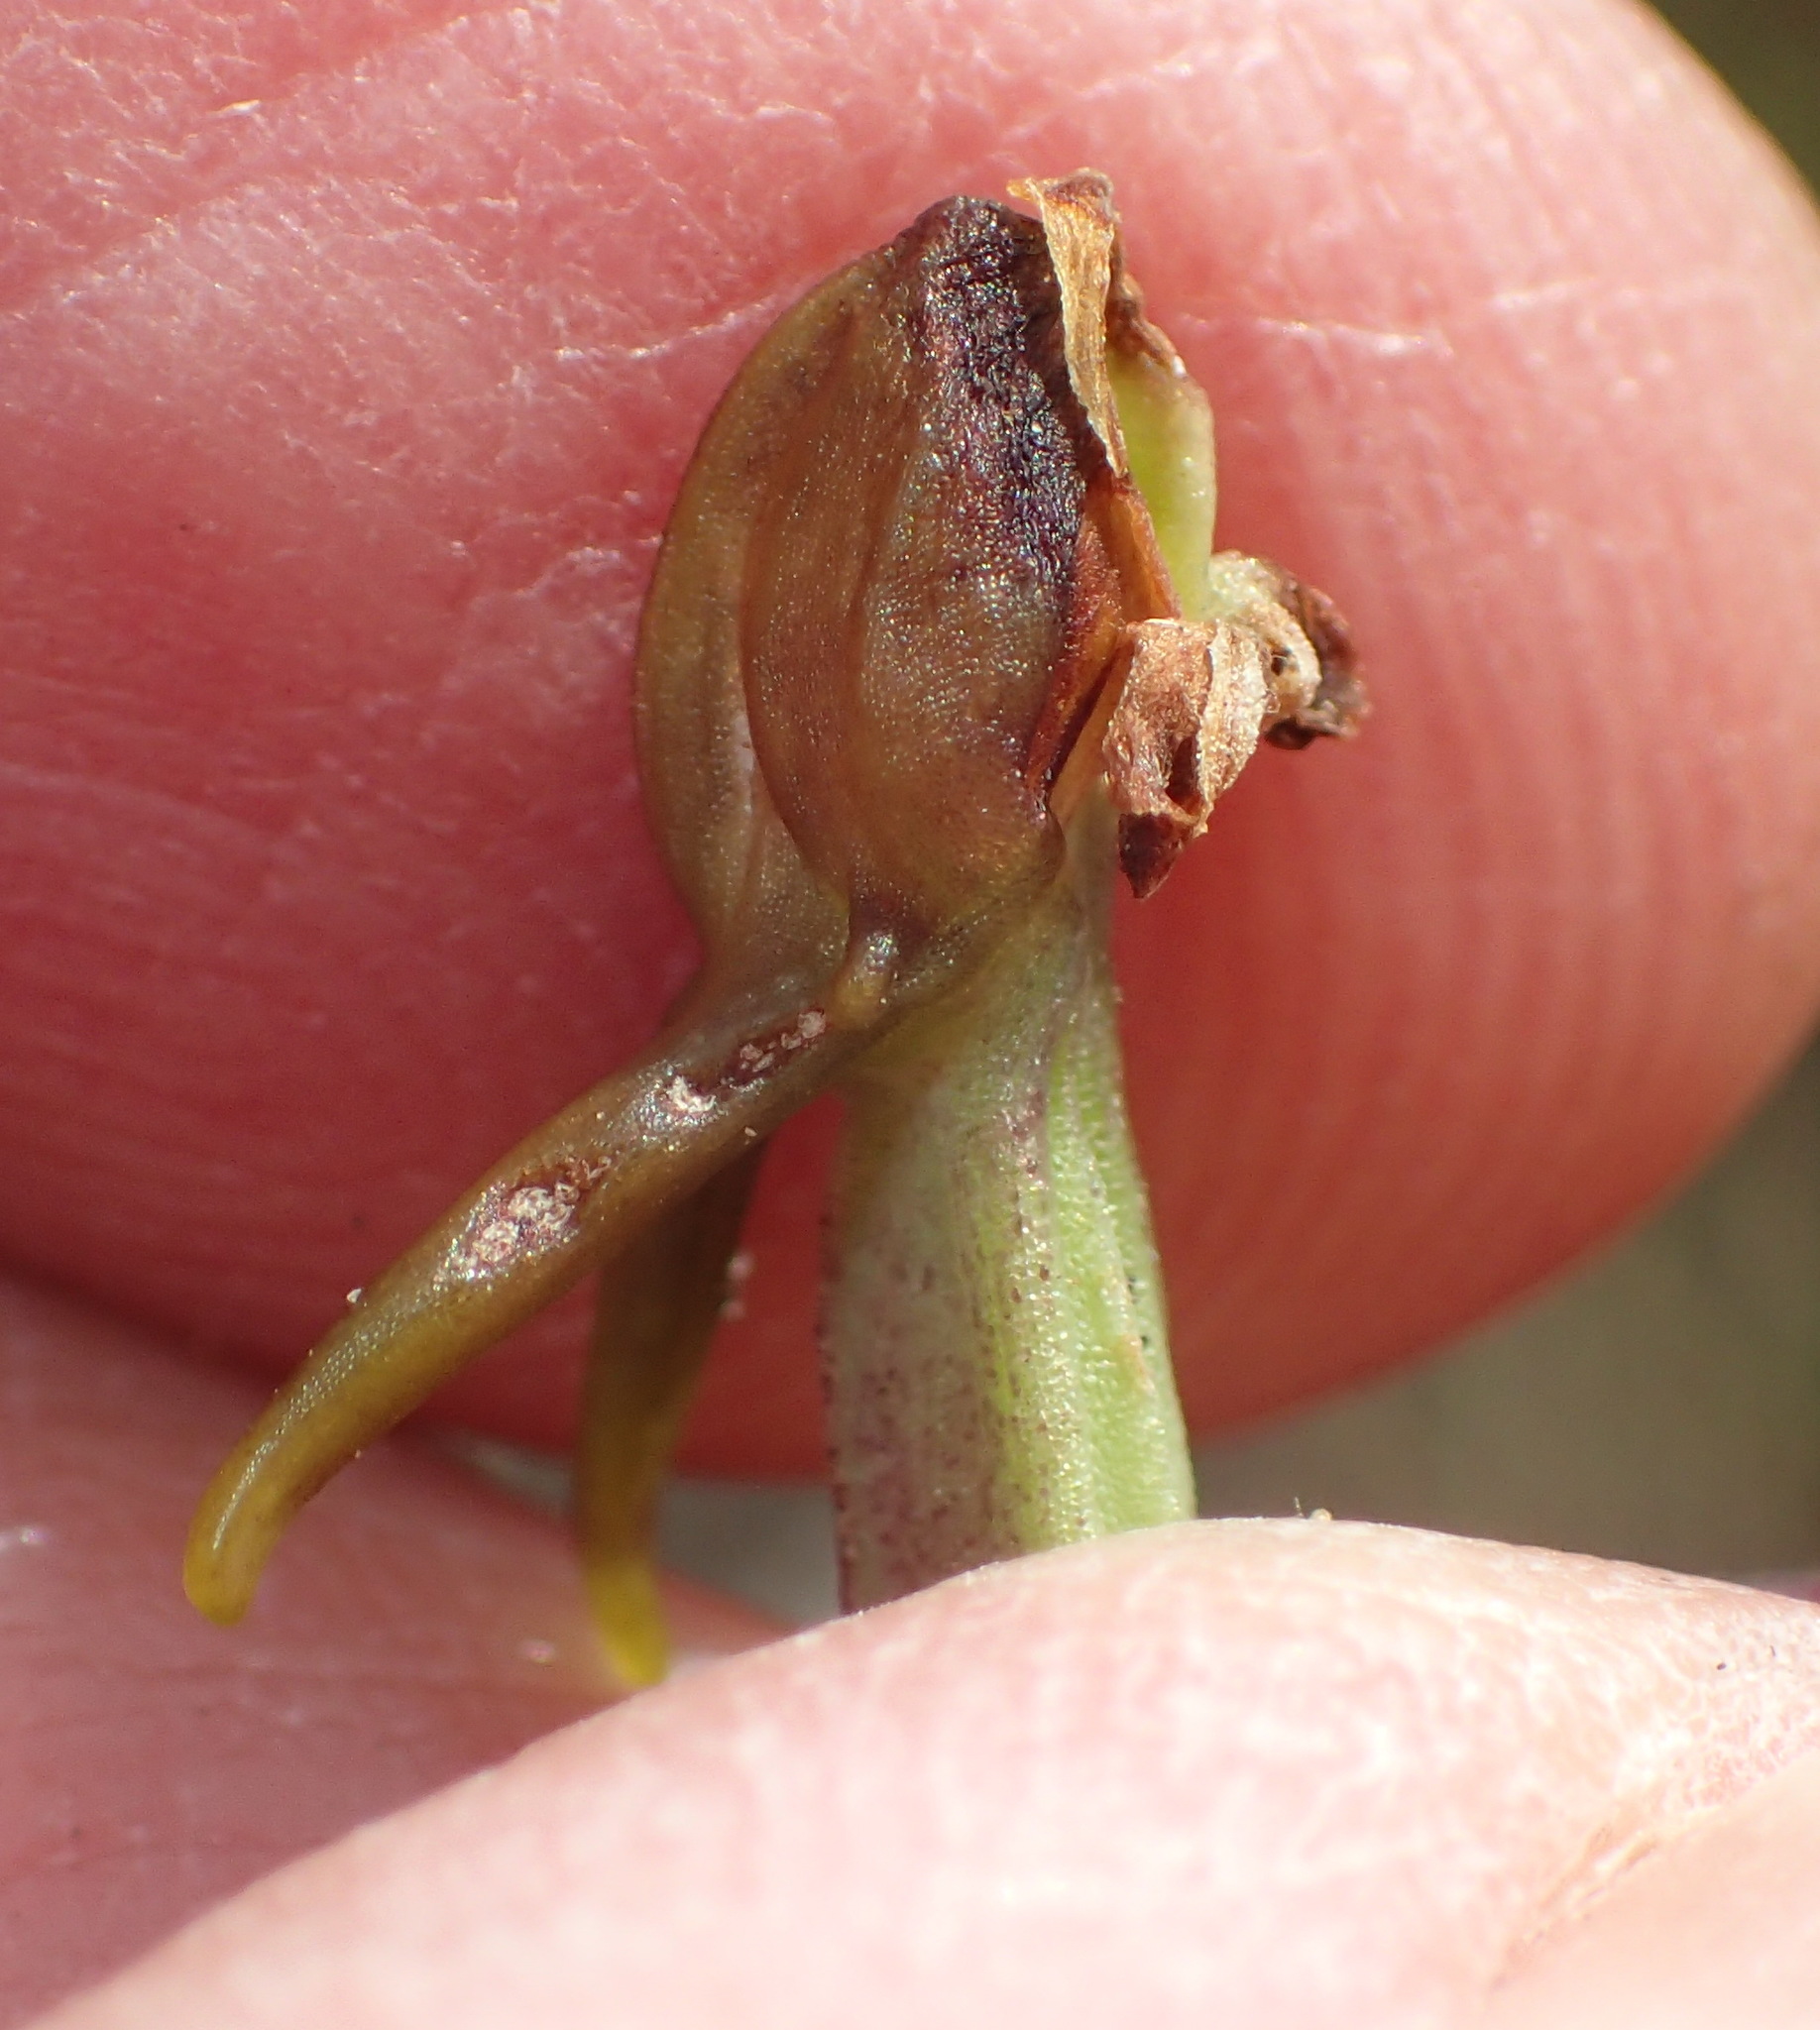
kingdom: Plantae
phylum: Tracheophyta
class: Liliopsida
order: Asparagales
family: Orchidaceae
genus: Satyrium
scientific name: Satyrium parviflorum
